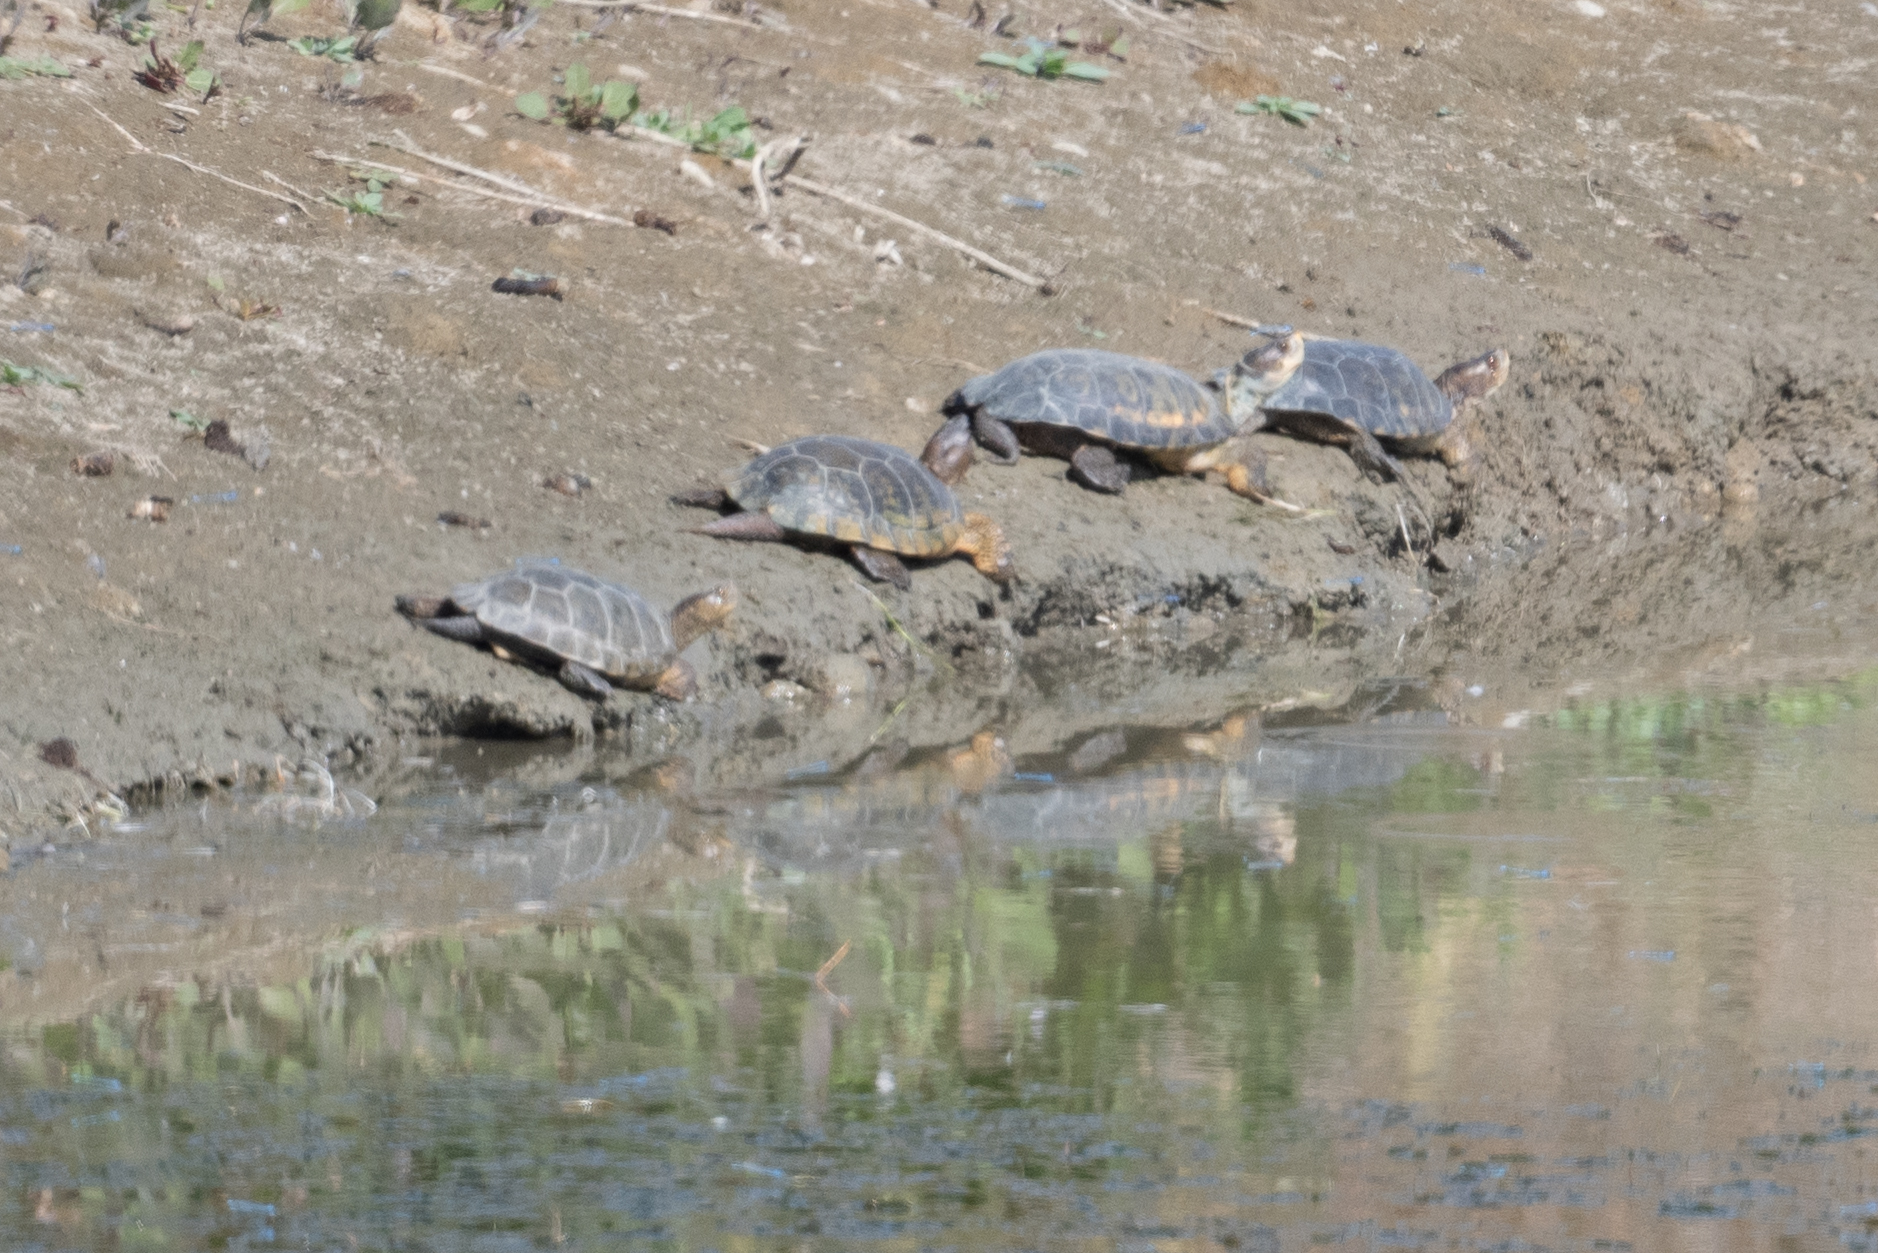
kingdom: Animalia
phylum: Chordata
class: Testudines
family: Emydidae
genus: Actinemys
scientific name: Actinemys marmorata
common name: Western pond turtle
